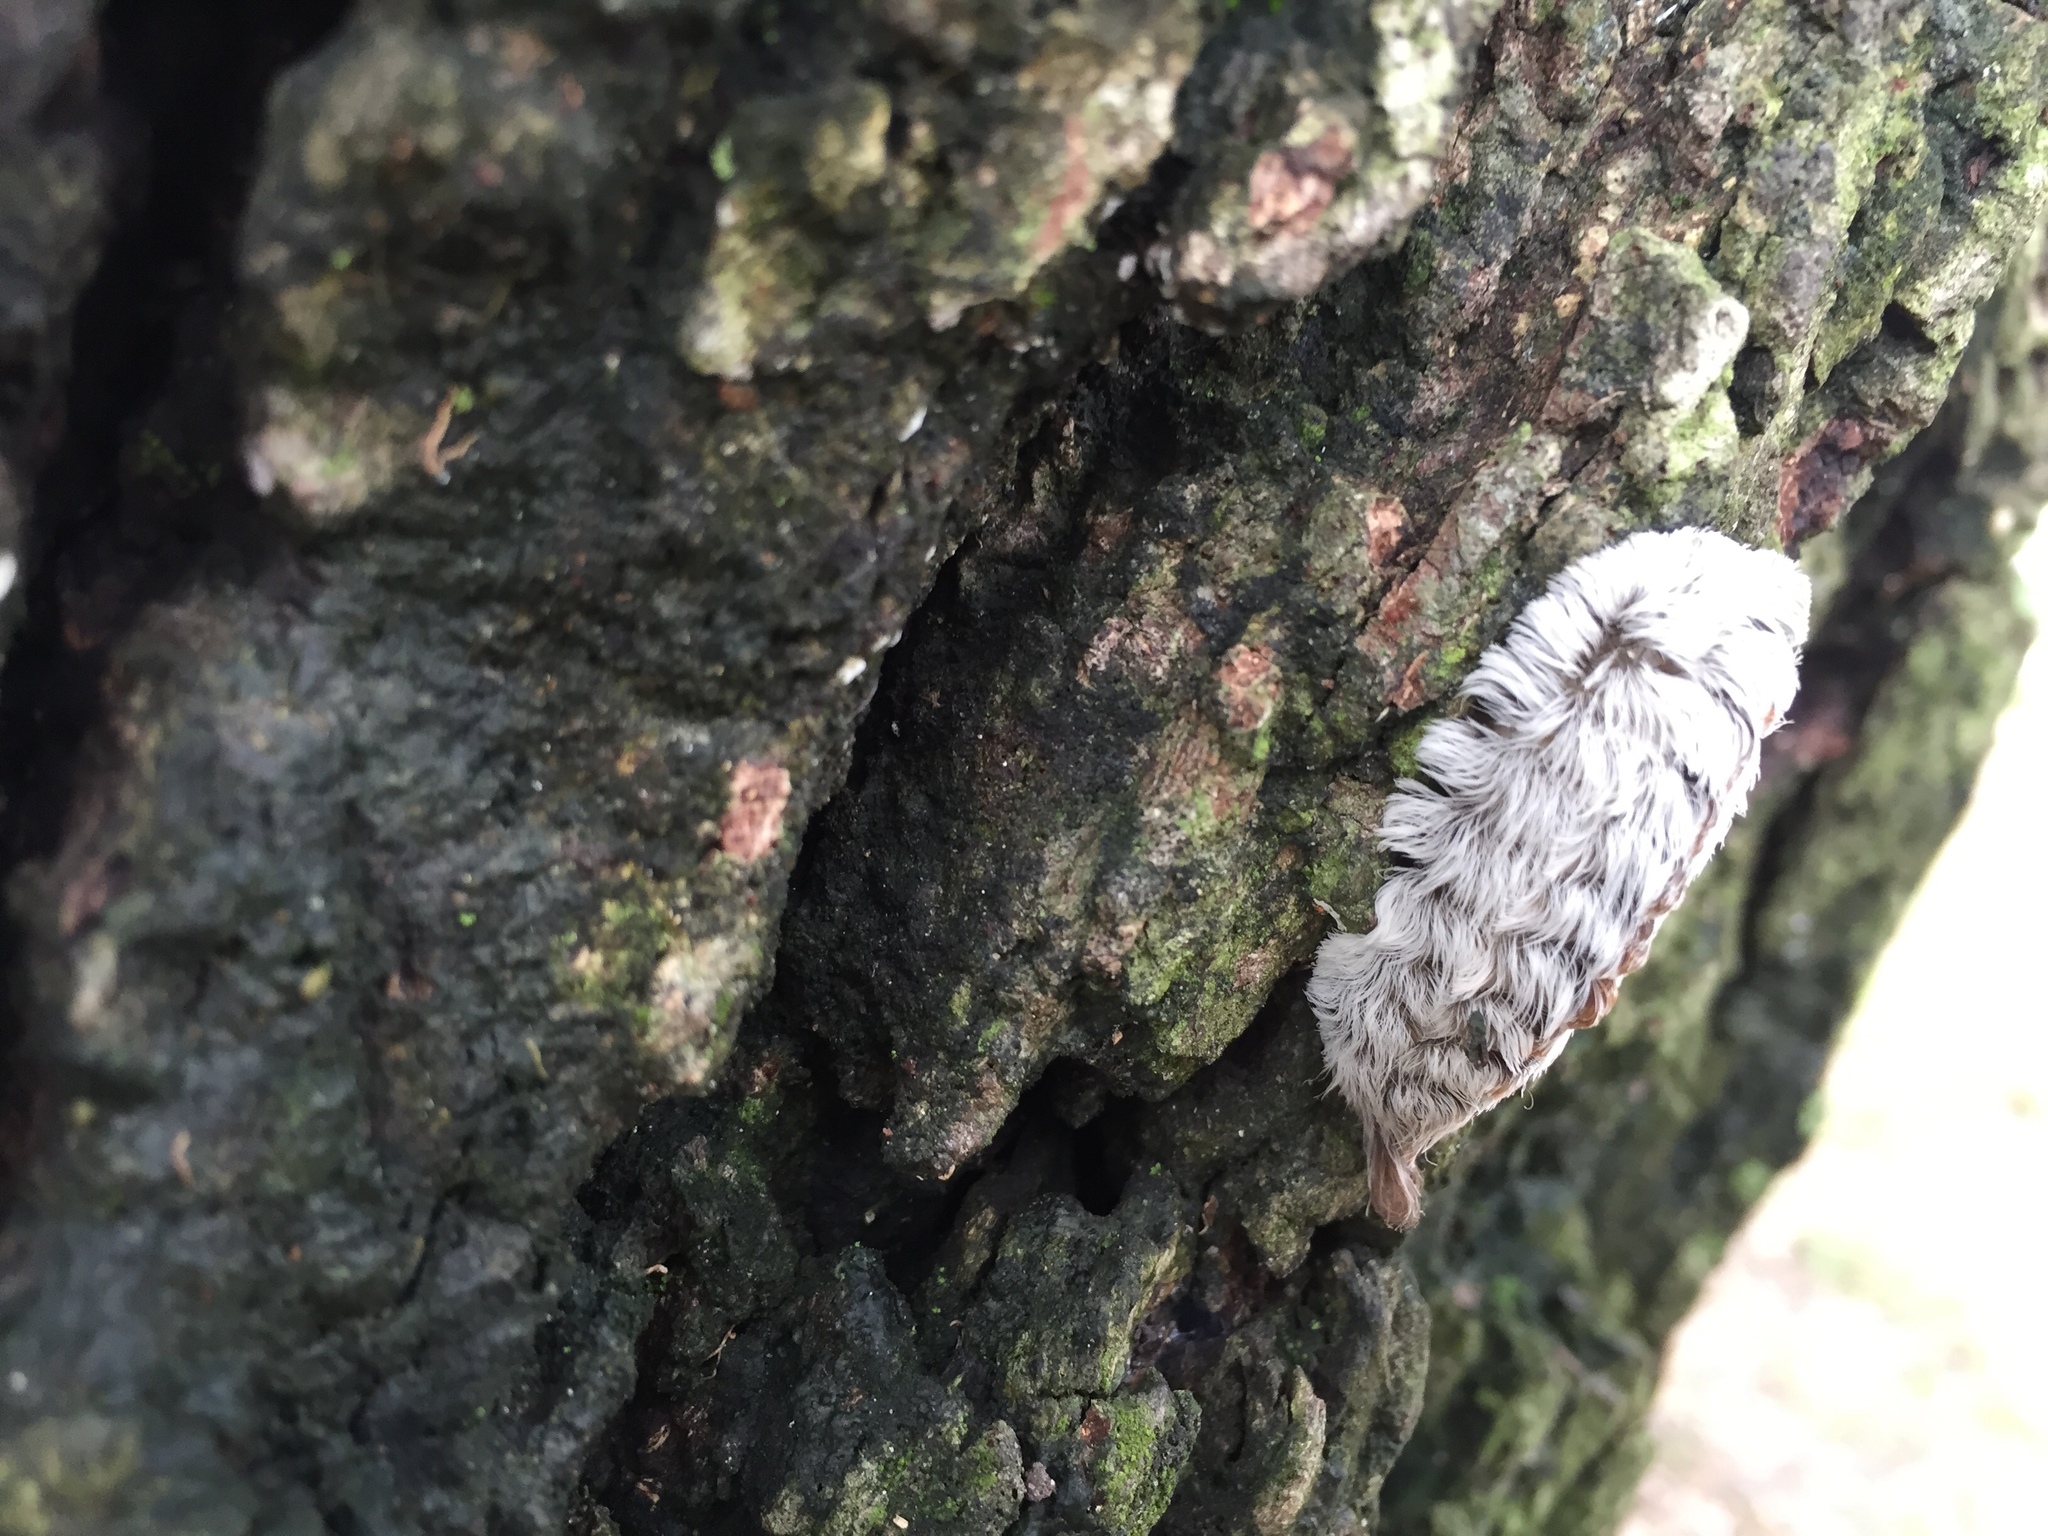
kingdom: Animalia
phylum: Arthropoda
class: Insecta
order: Lepidoptera
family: Megalopygidae
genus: Megalopyge
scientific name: Megalopyge opercularis
